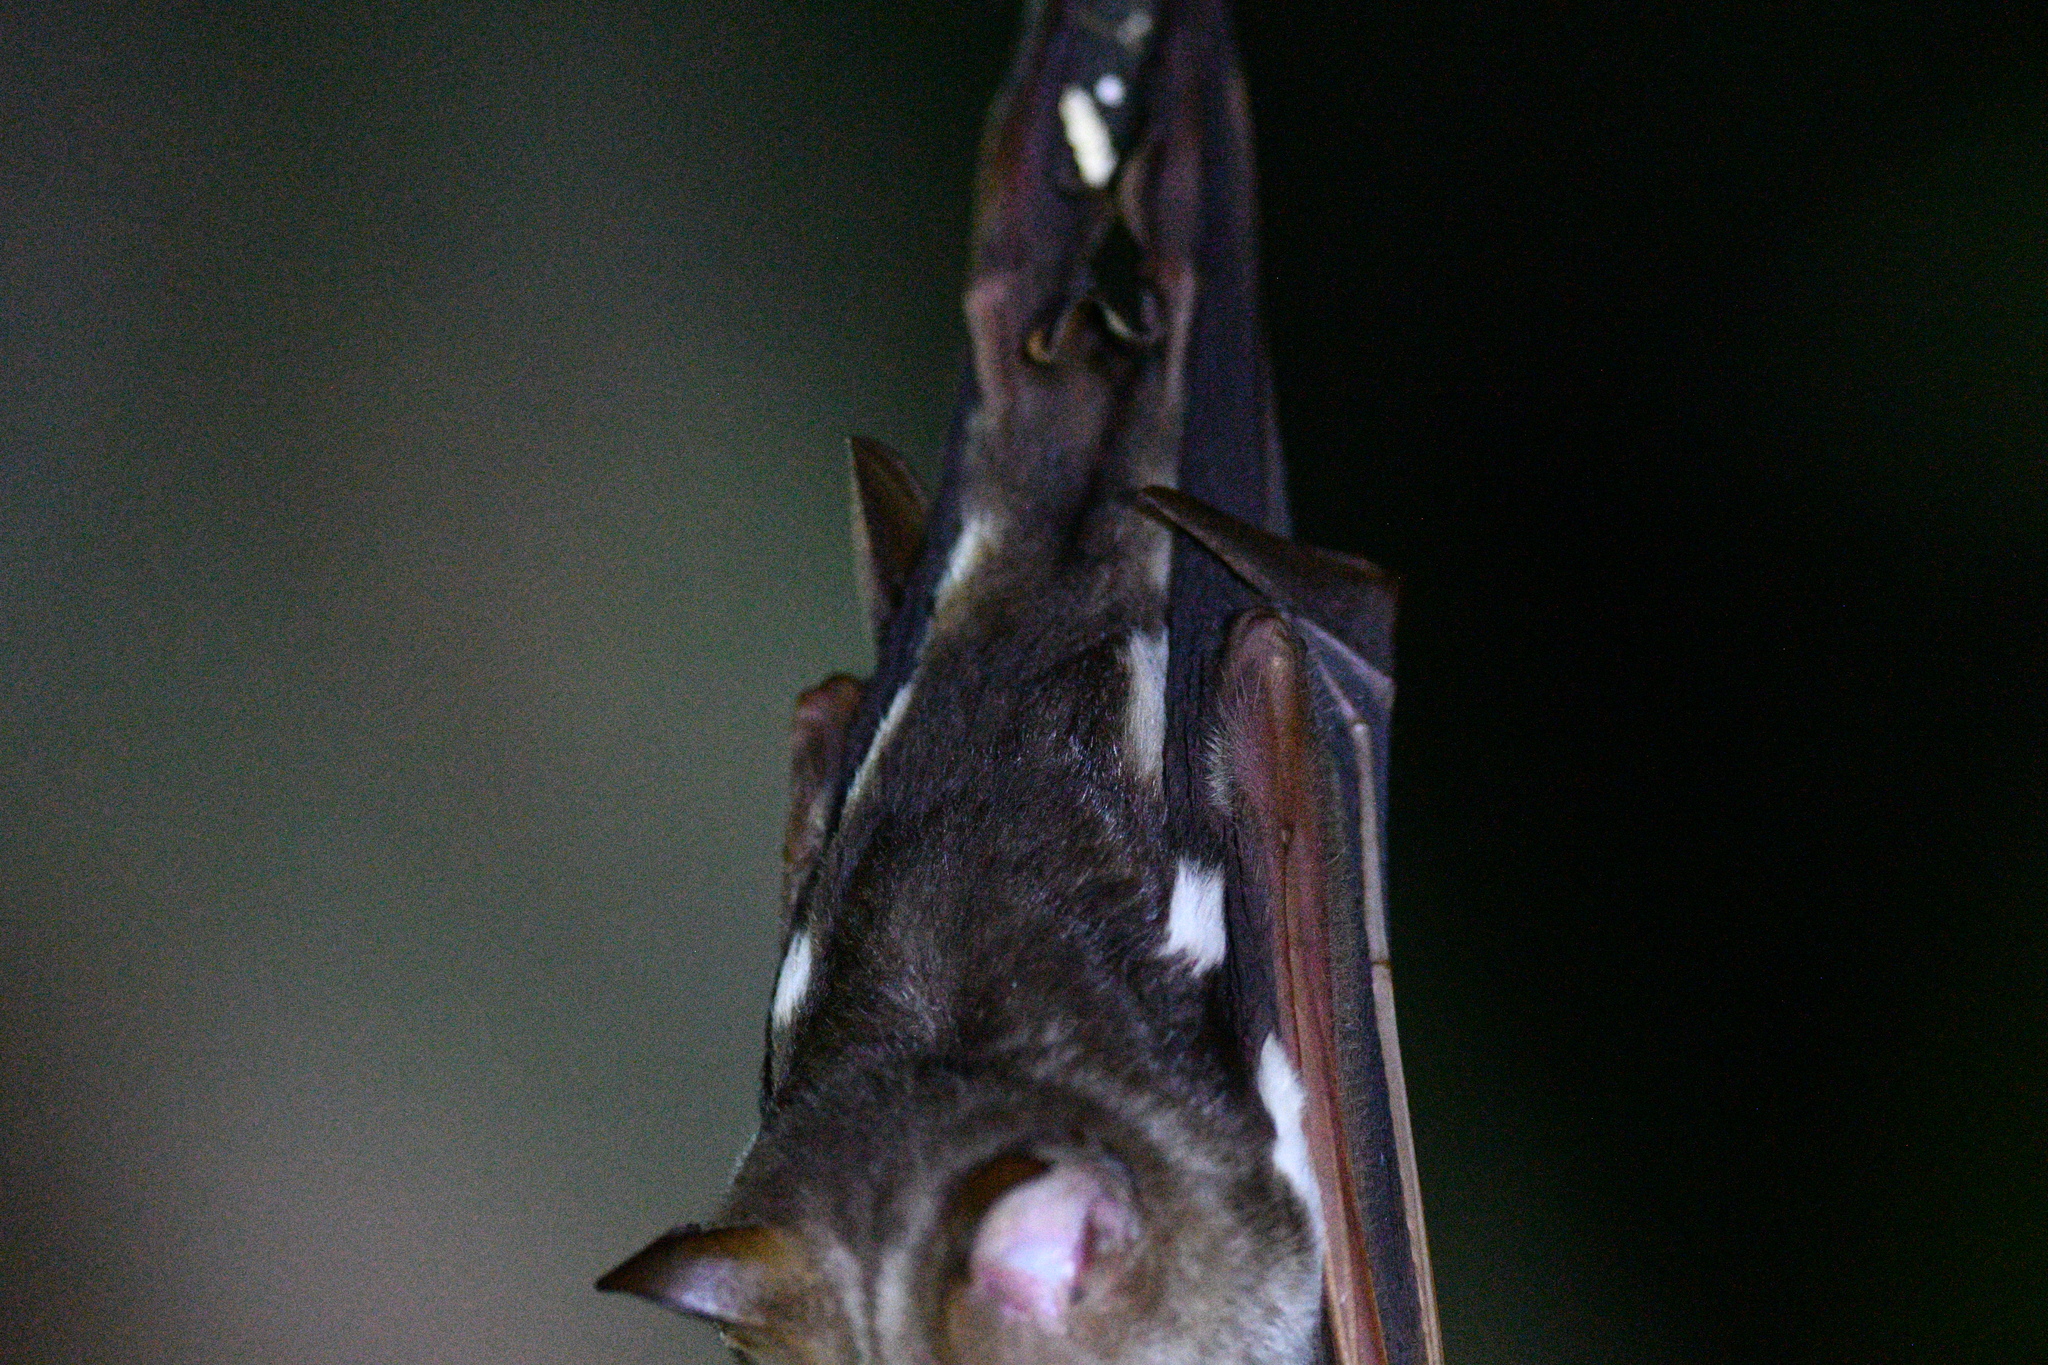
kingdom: Animalia
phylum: Chordata
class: Mammalia
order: Chiroptera
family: Hipposideridae
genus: Hipposideros
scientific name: Hipposideros diadema
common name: Diadem leaf-nosed bat
